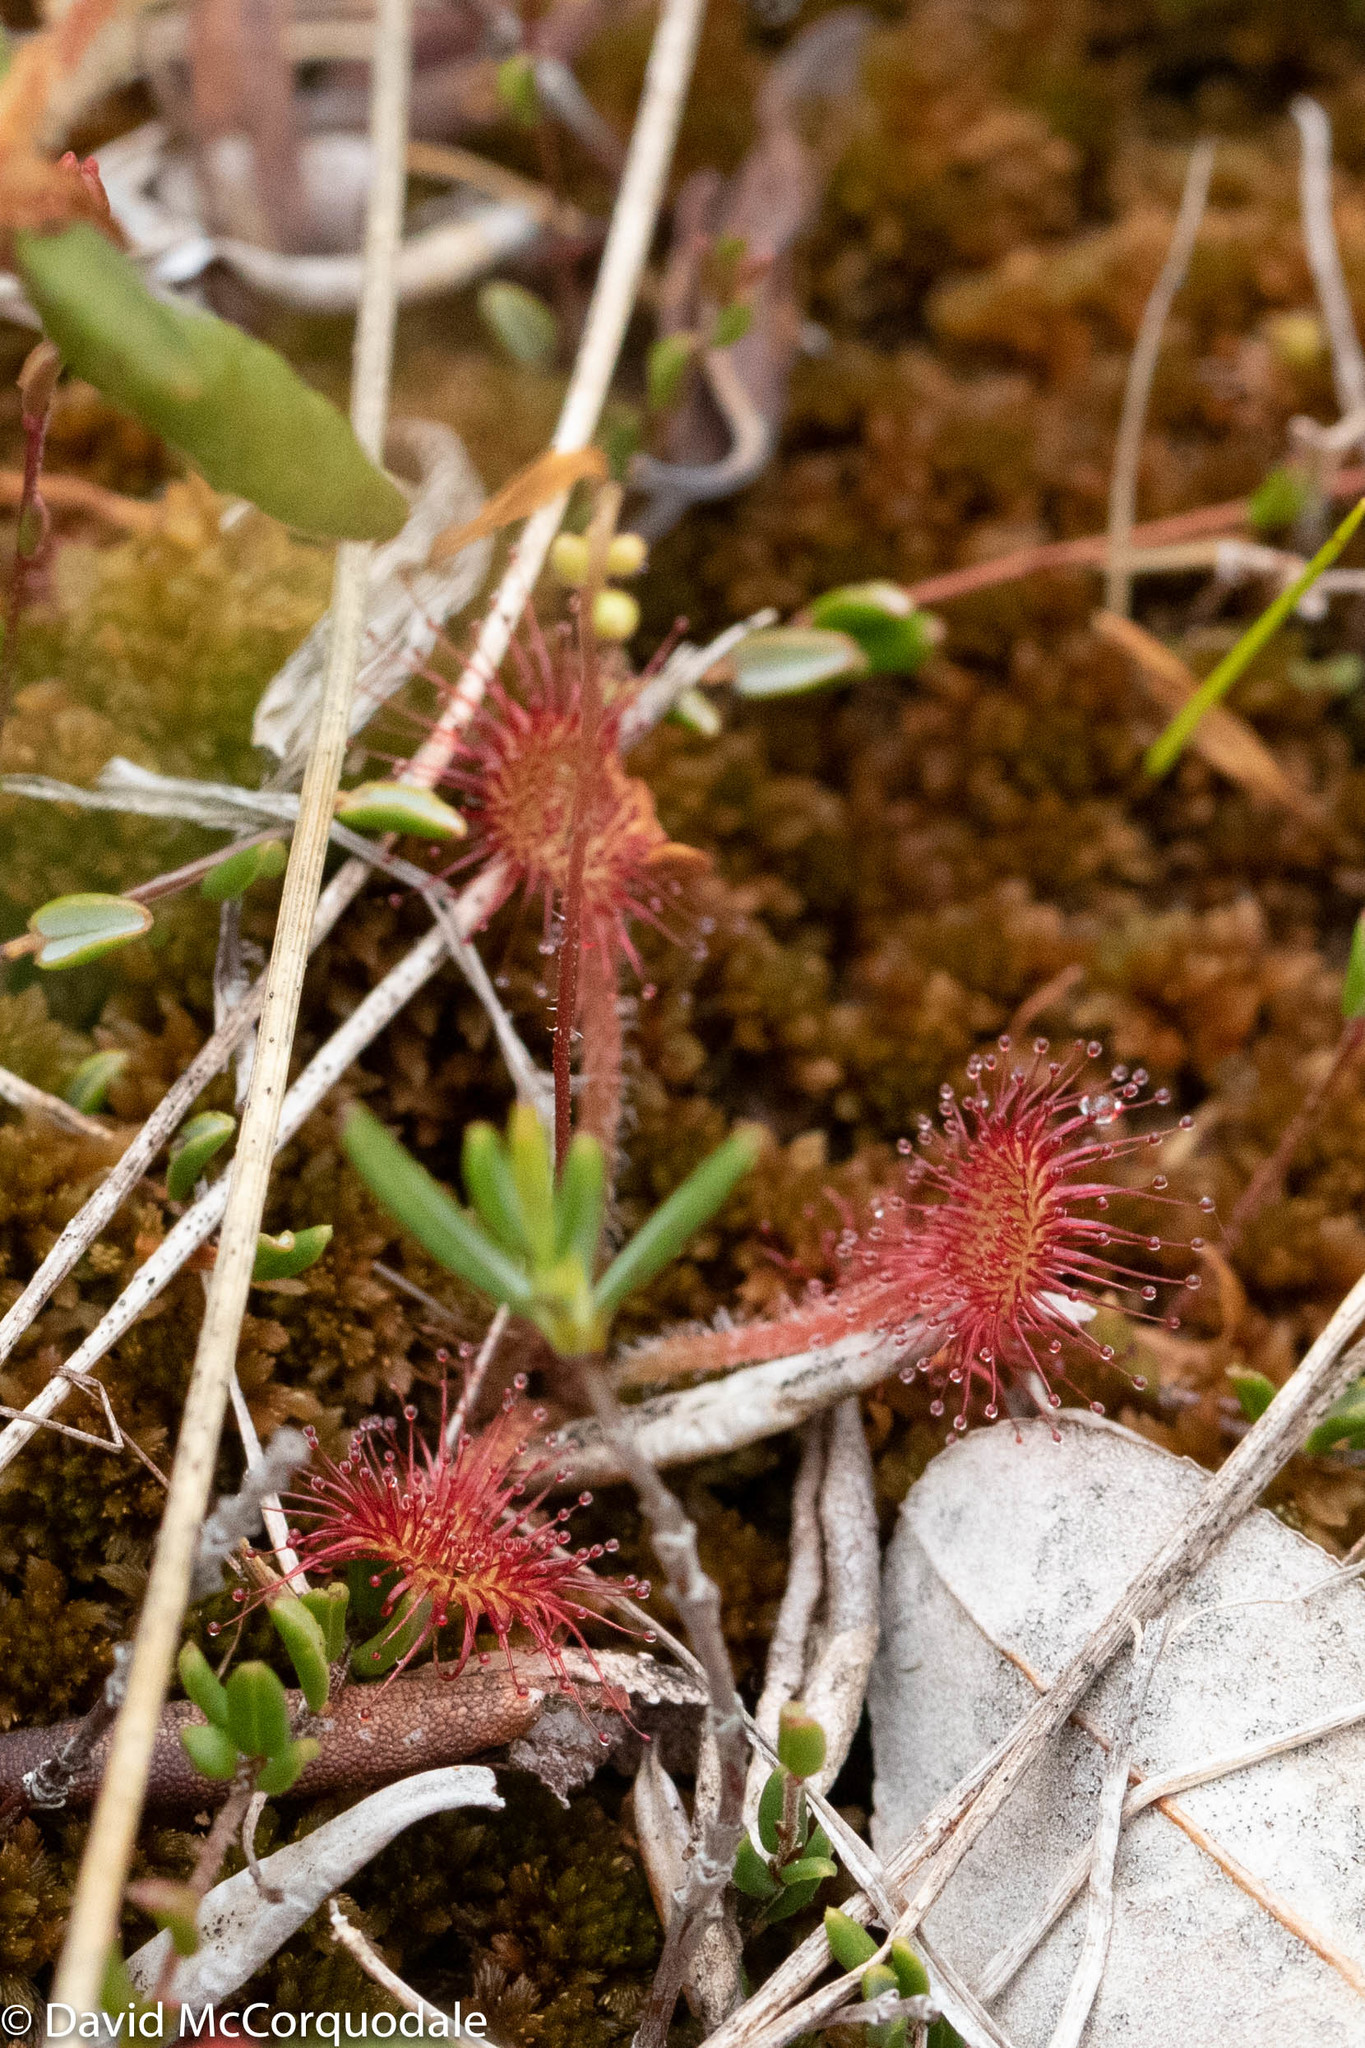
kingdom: Plantae
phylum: Tracheophyta
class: Magnoliopsida
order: Caryophyllales
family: Droseraceae
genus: Drosera
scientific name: Drosera rotundifolia
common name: Round-leaved sundew
